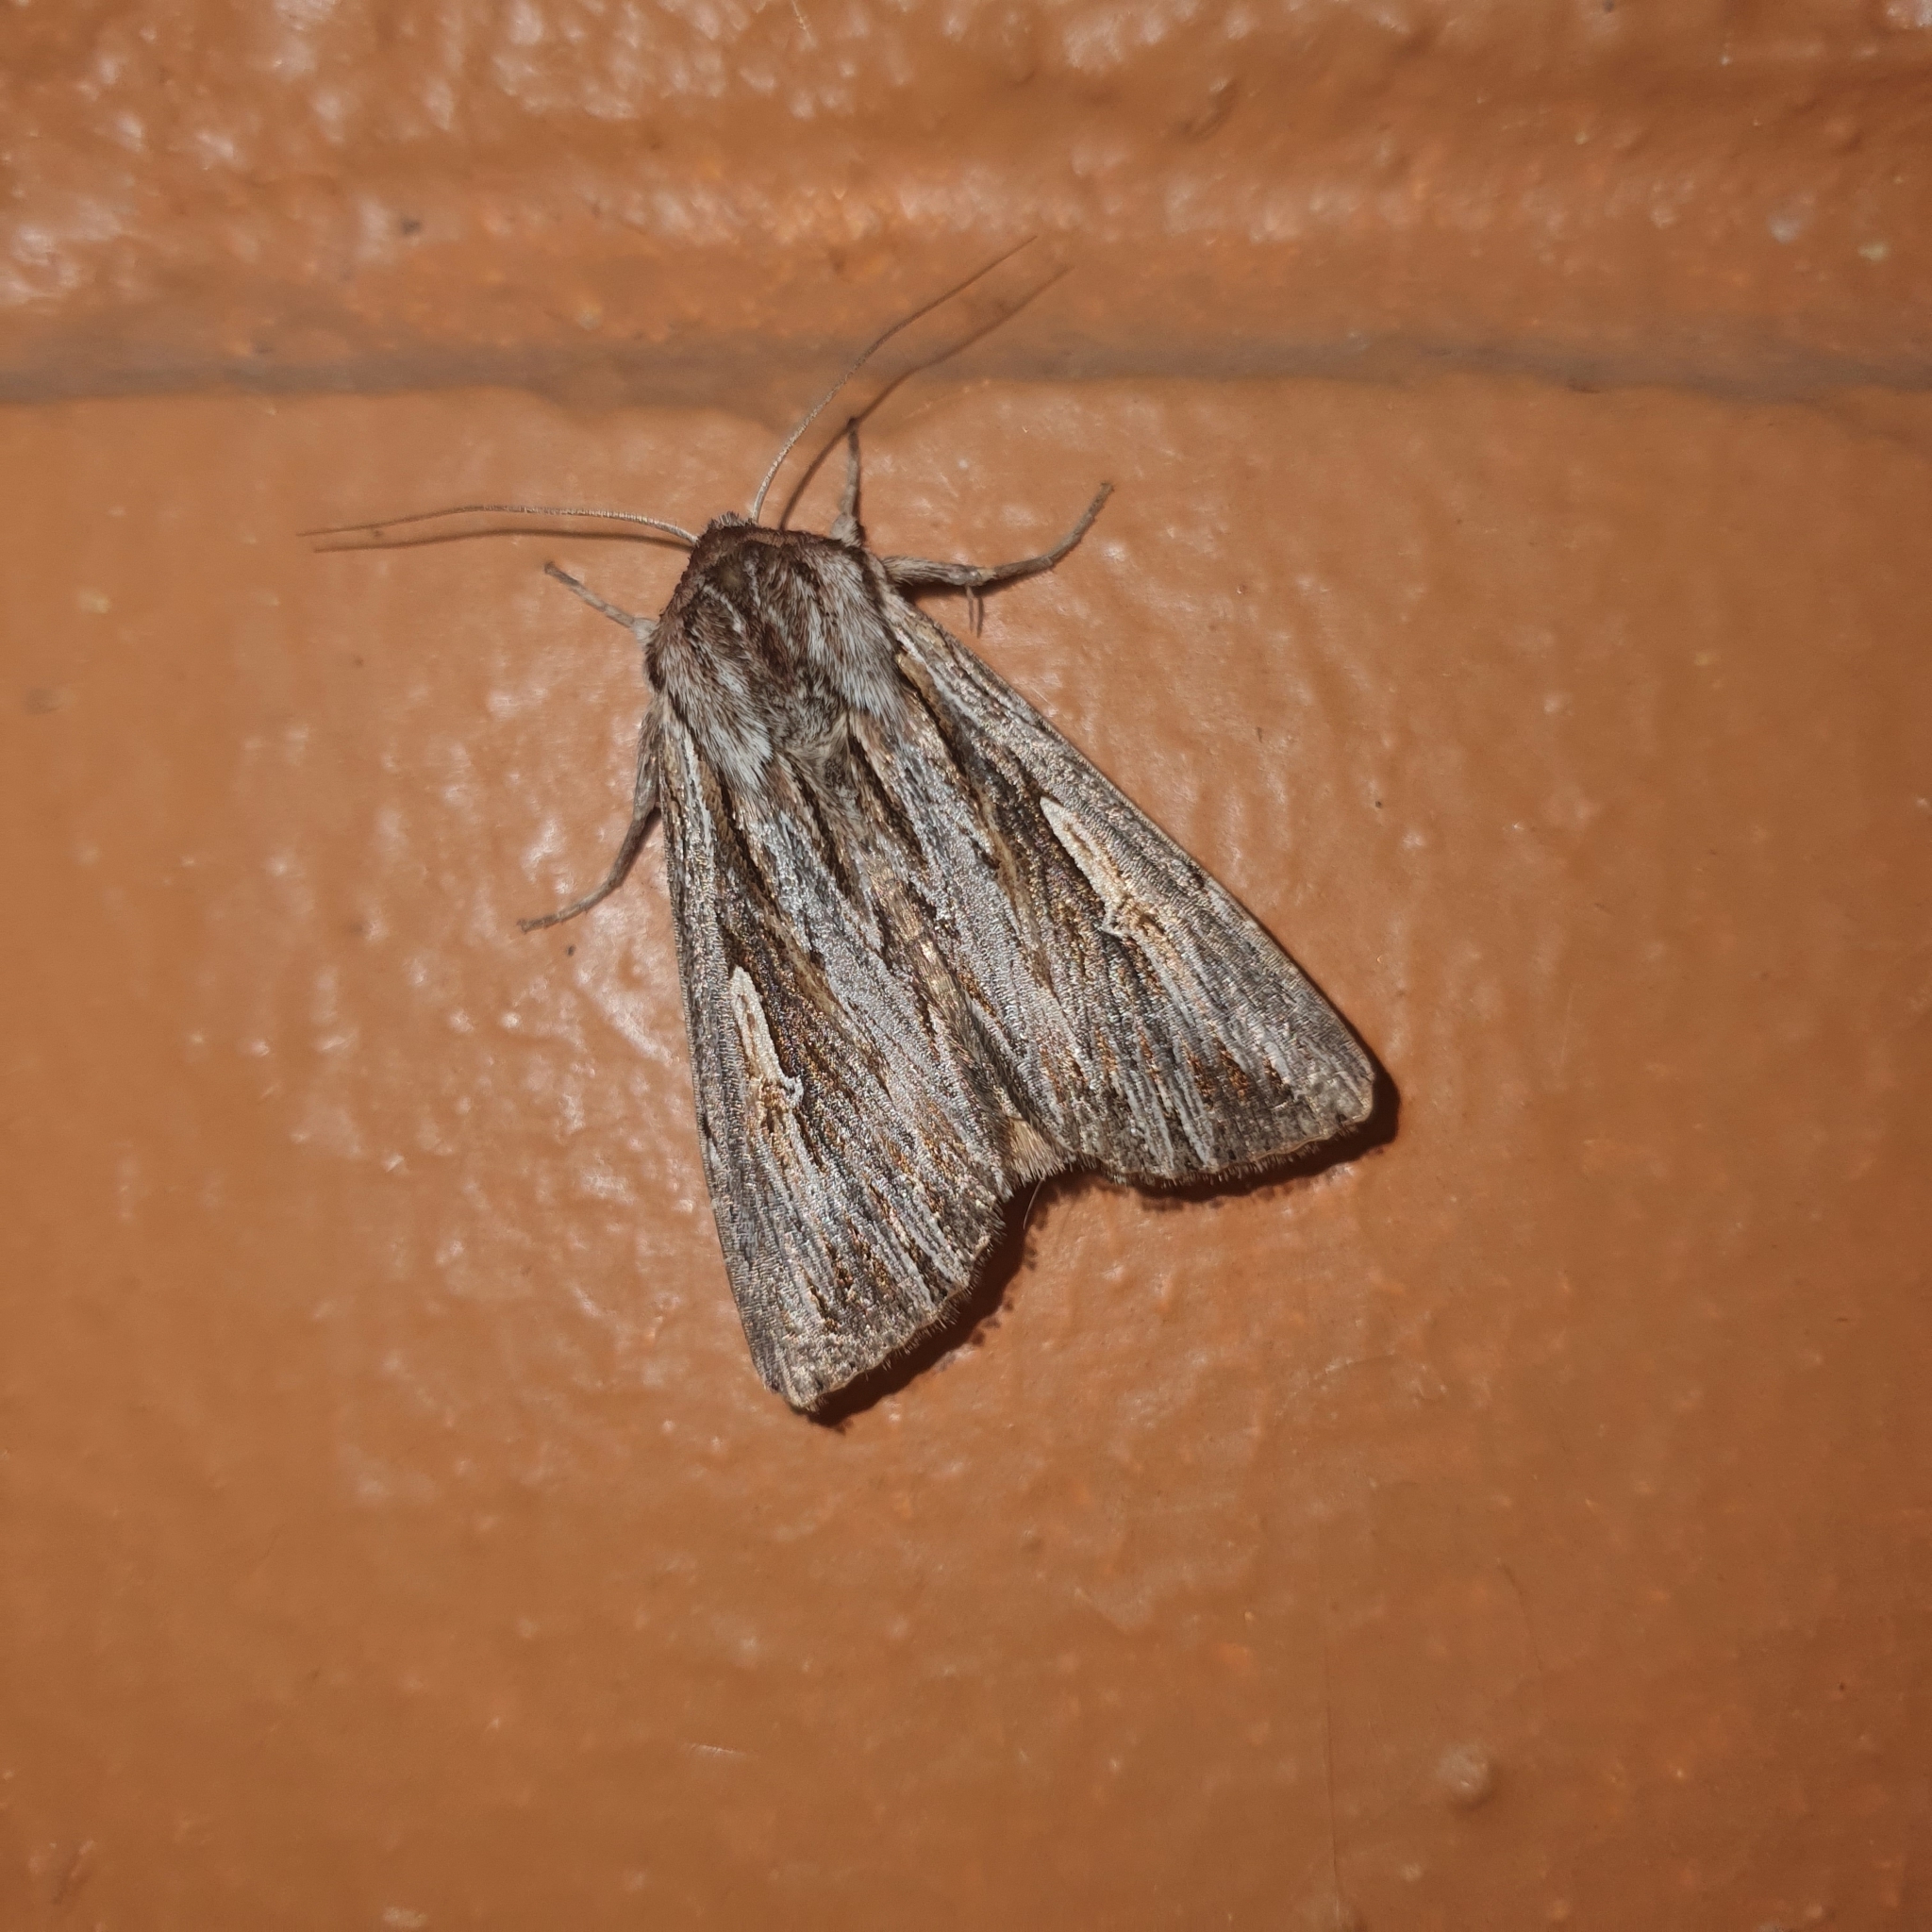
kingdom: Animalia
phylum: Arthropoda
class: Insecta
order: Lepidoptera
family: Noctuidae
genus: Persectania
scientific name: Persectania ewingii
